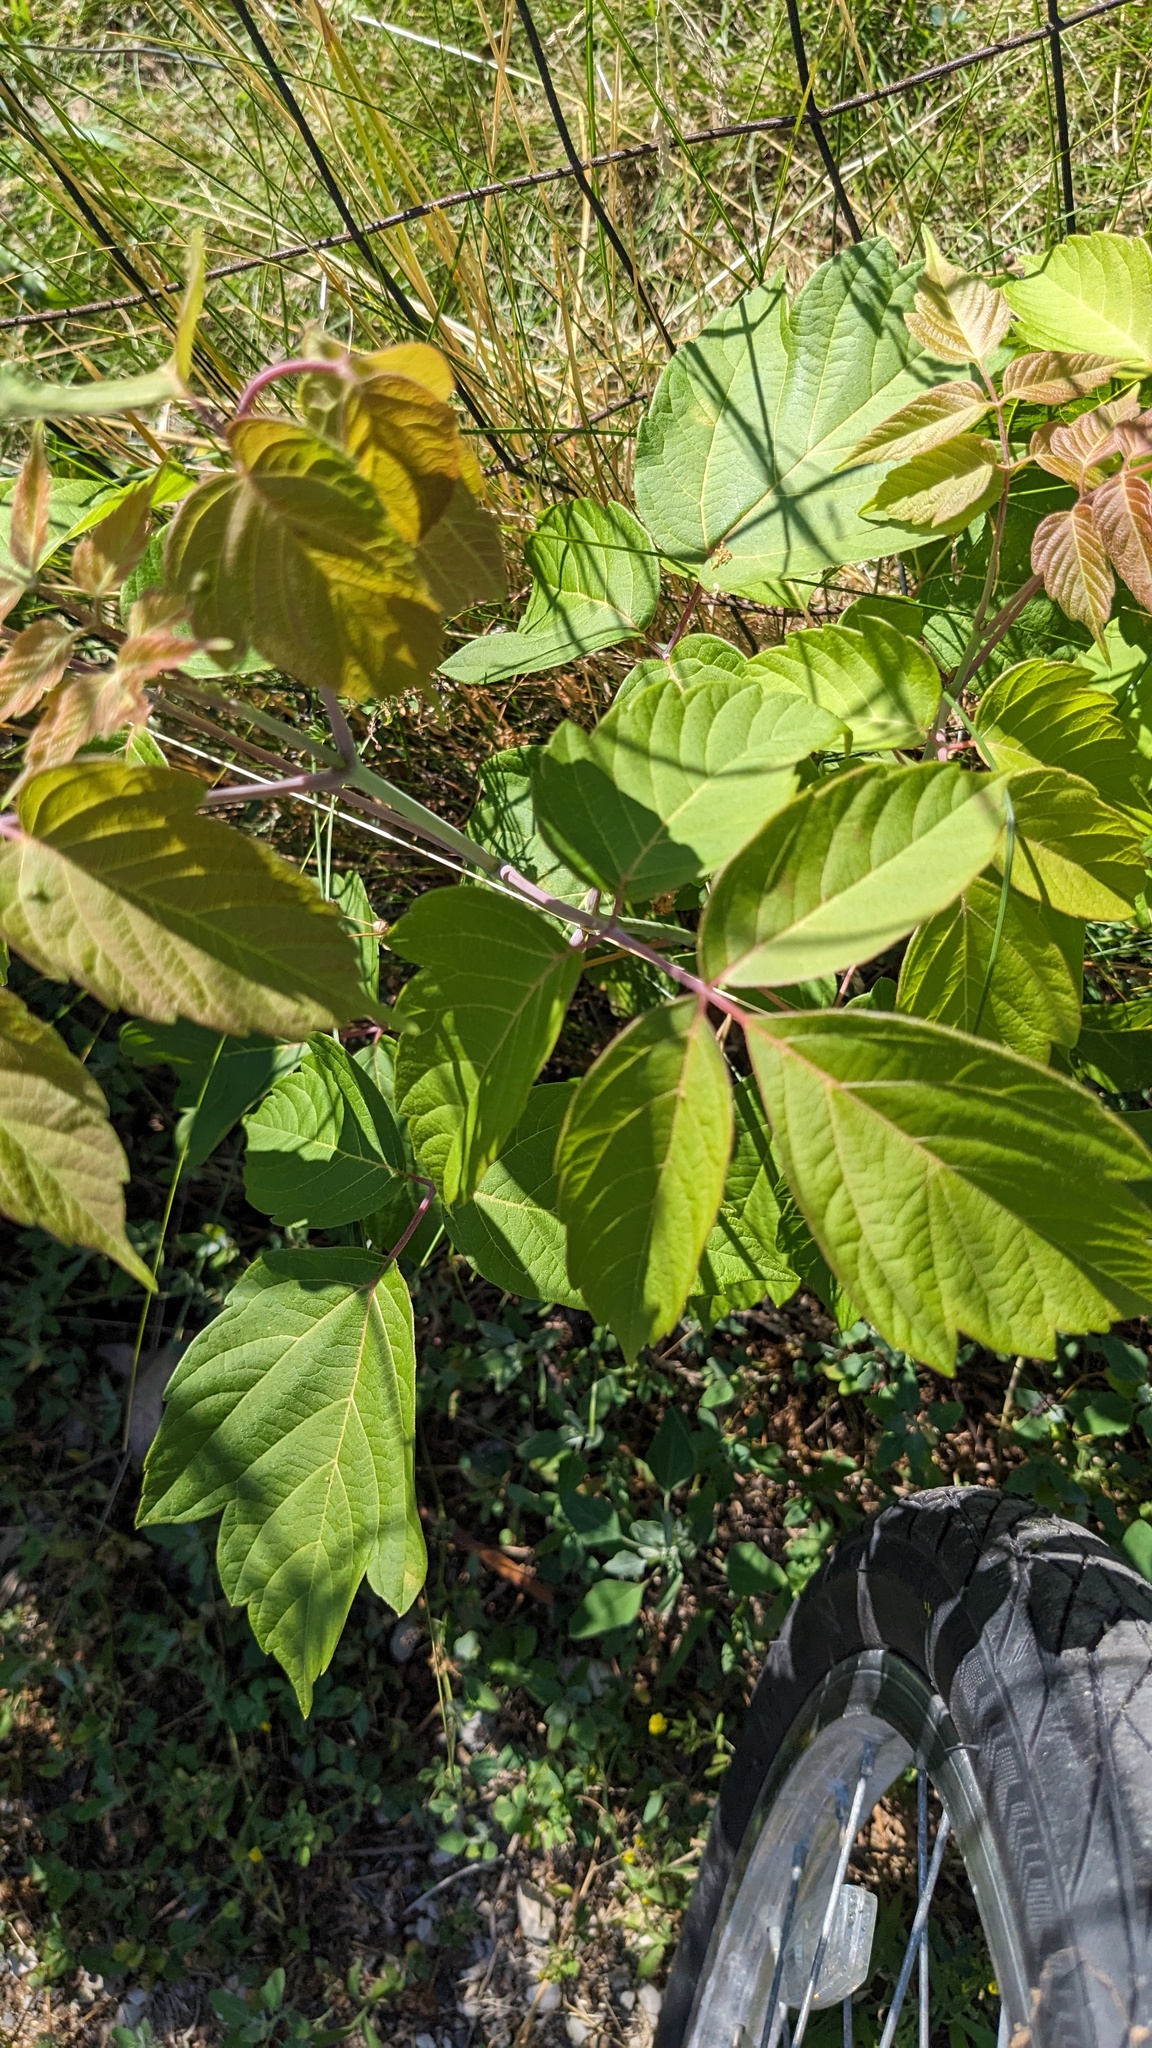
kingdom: Plantae
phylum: Tracheophyta
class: Magnoliopsida
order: Sapindales
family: Sapindaceae
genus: Acer
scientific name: Acer negundo
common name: Ashleaf maple
